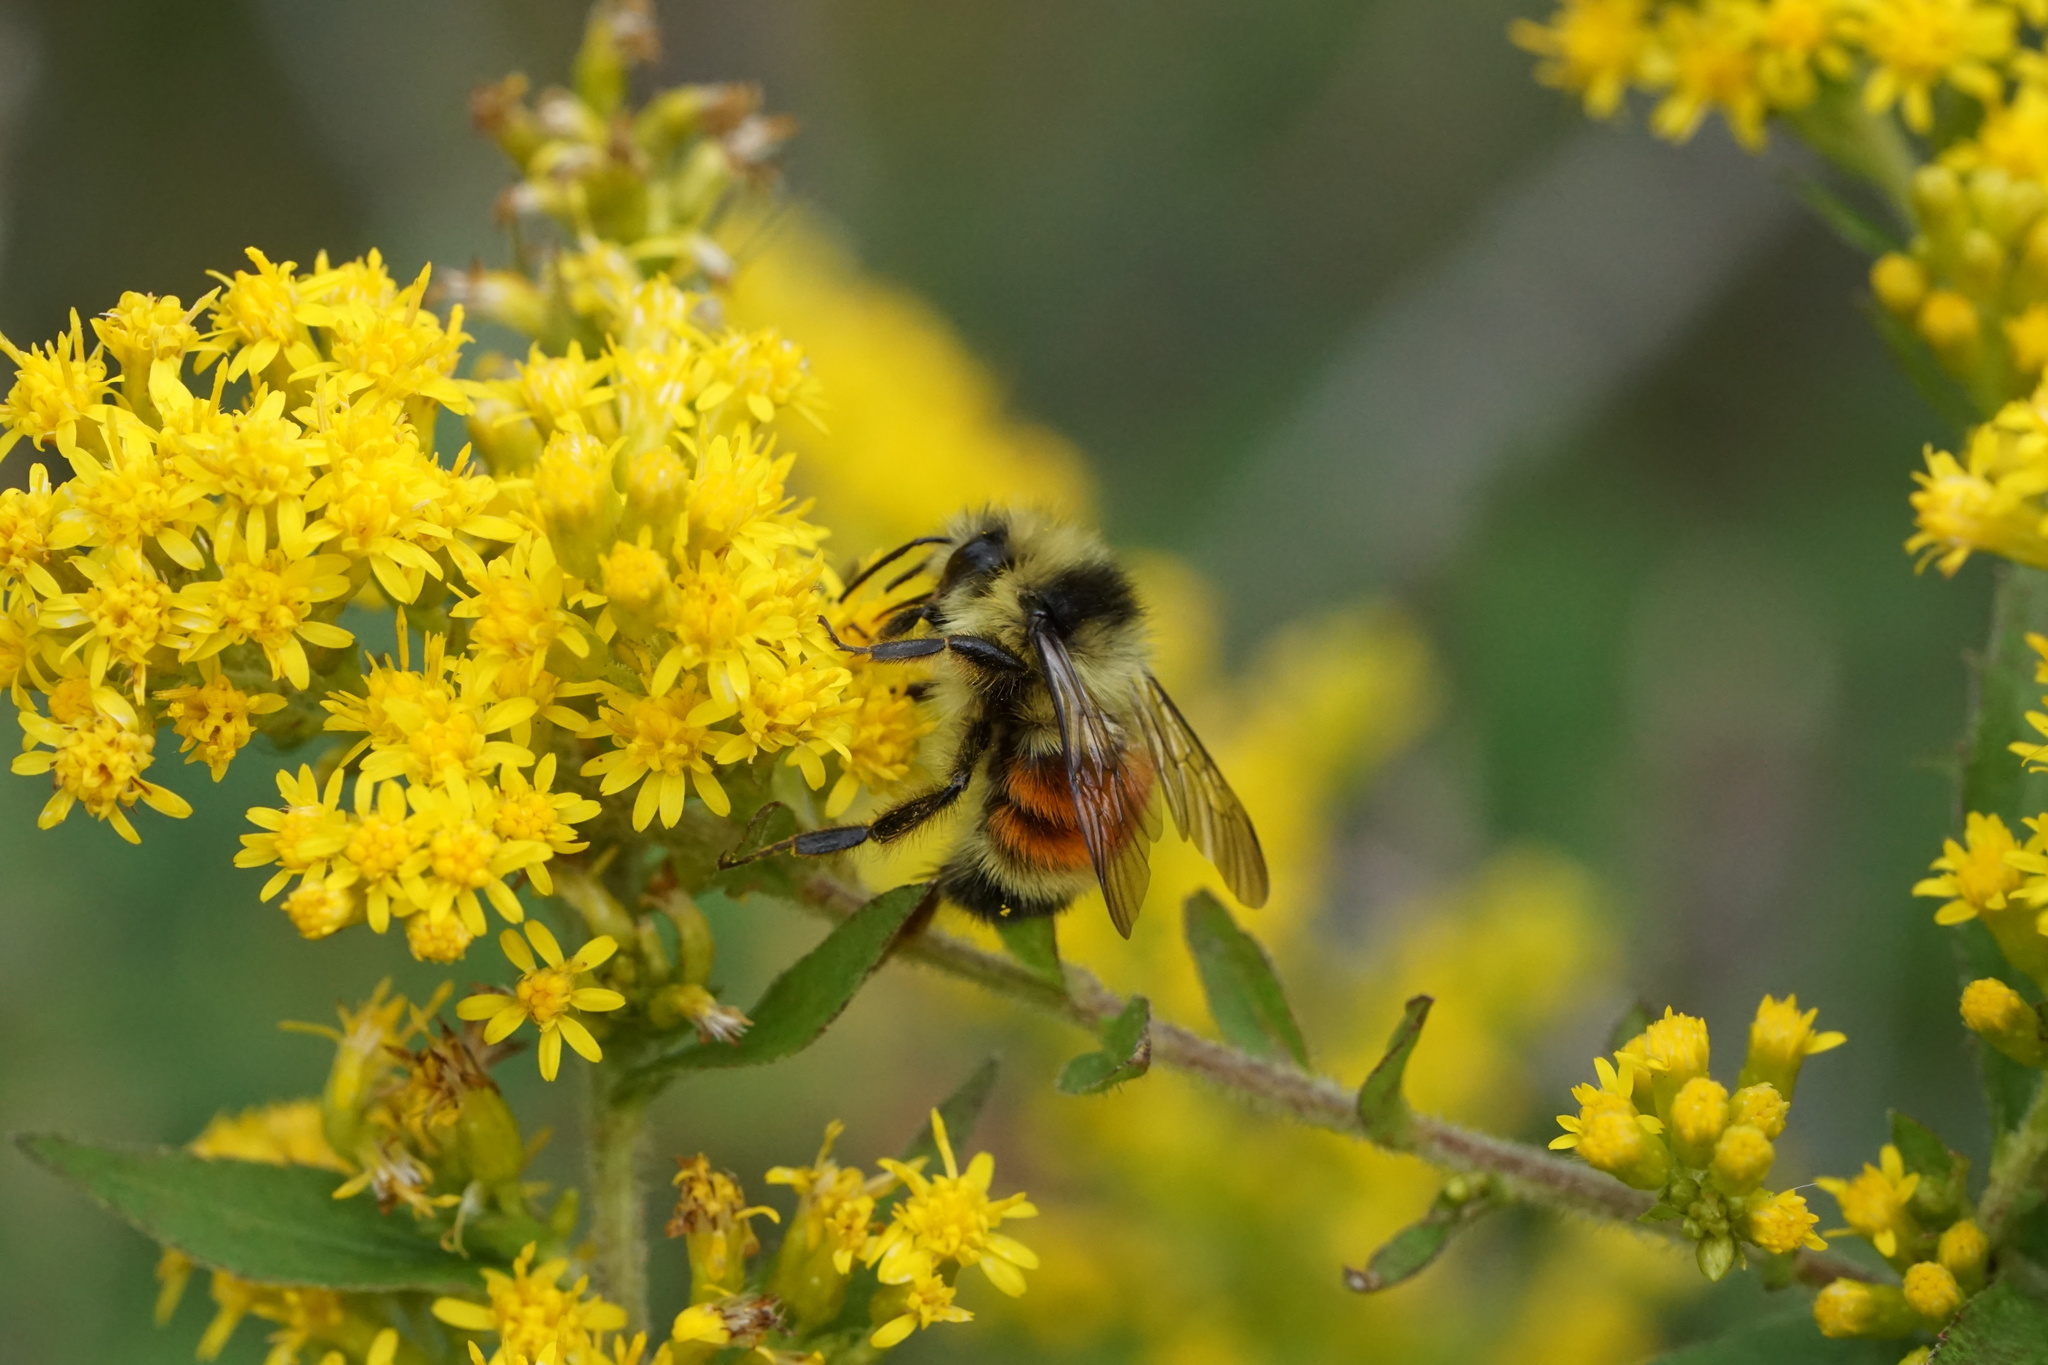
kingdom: Animalia
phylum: Arthropoda
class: Insecta
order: Hymenoptera
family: Apidae
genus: Bombus
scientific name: Bombus ternarius
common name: Tri-colored bumble bee
